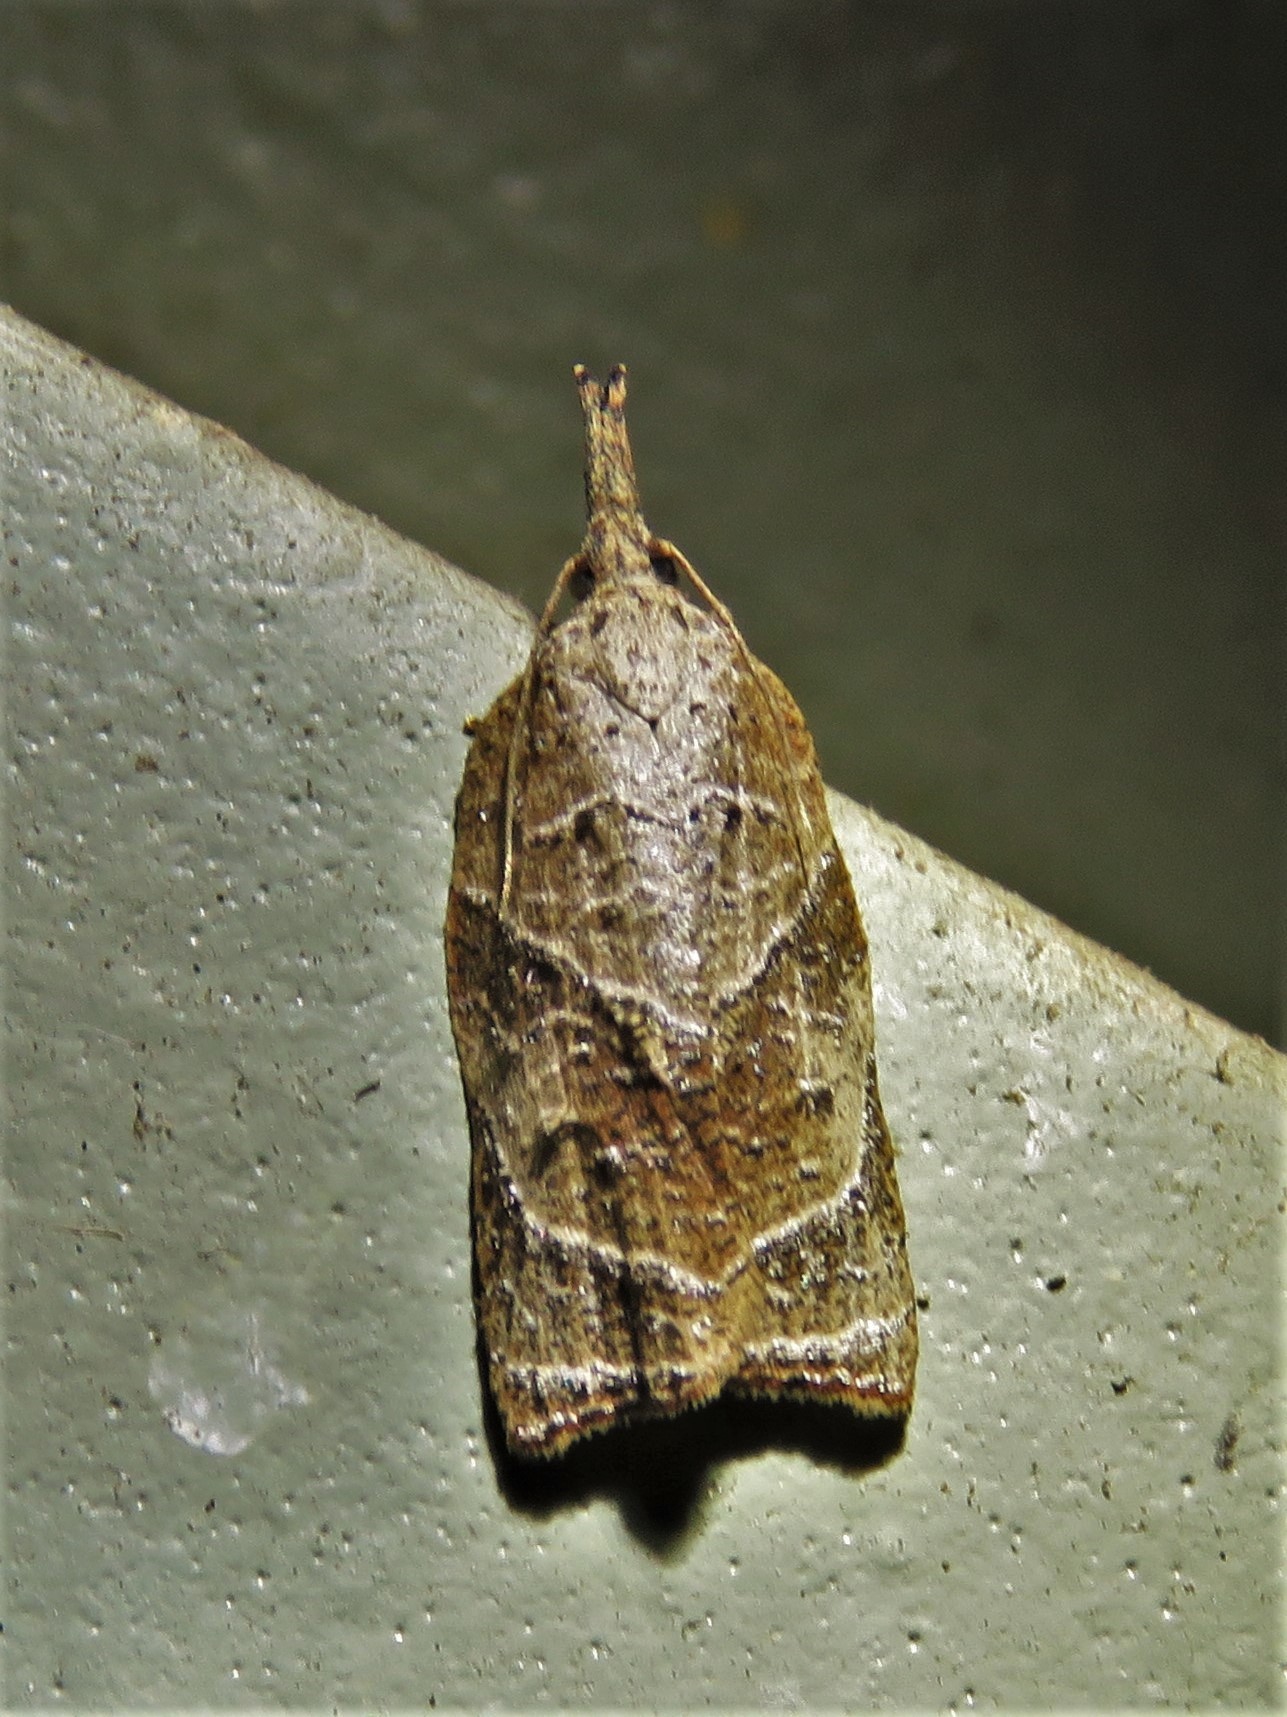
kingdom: Animalia
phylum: Arthropoda
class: Insecta
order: Lepidoptera
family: Tortricidae
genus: Platynota
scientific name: Platynota rostrana
